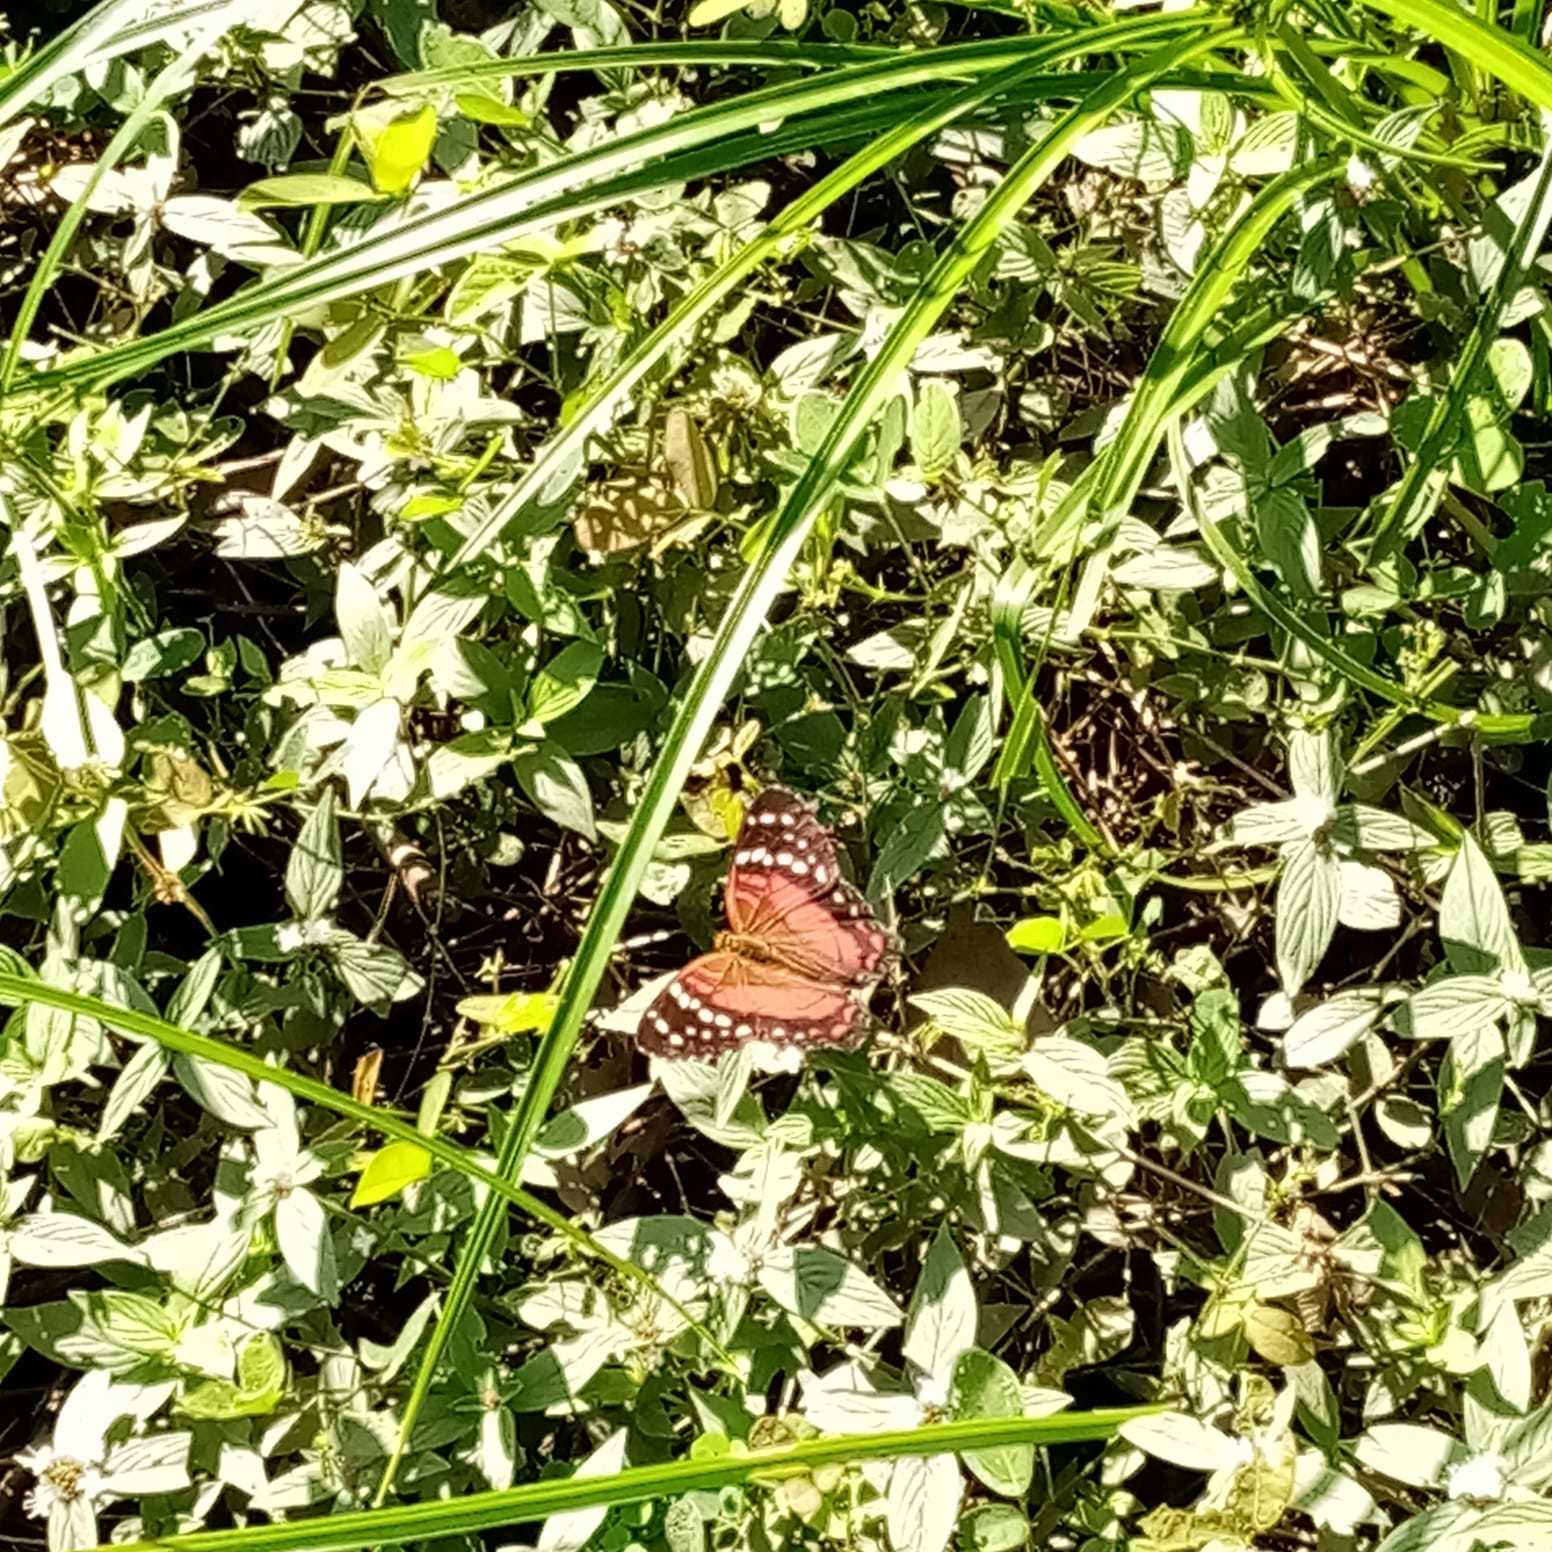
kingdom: Animalia
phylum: Arthropoda
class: Insecta
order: Lepidoptera
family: Nymphalidae
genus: Anartia
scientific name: Anartia amathea
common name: Red peacock
